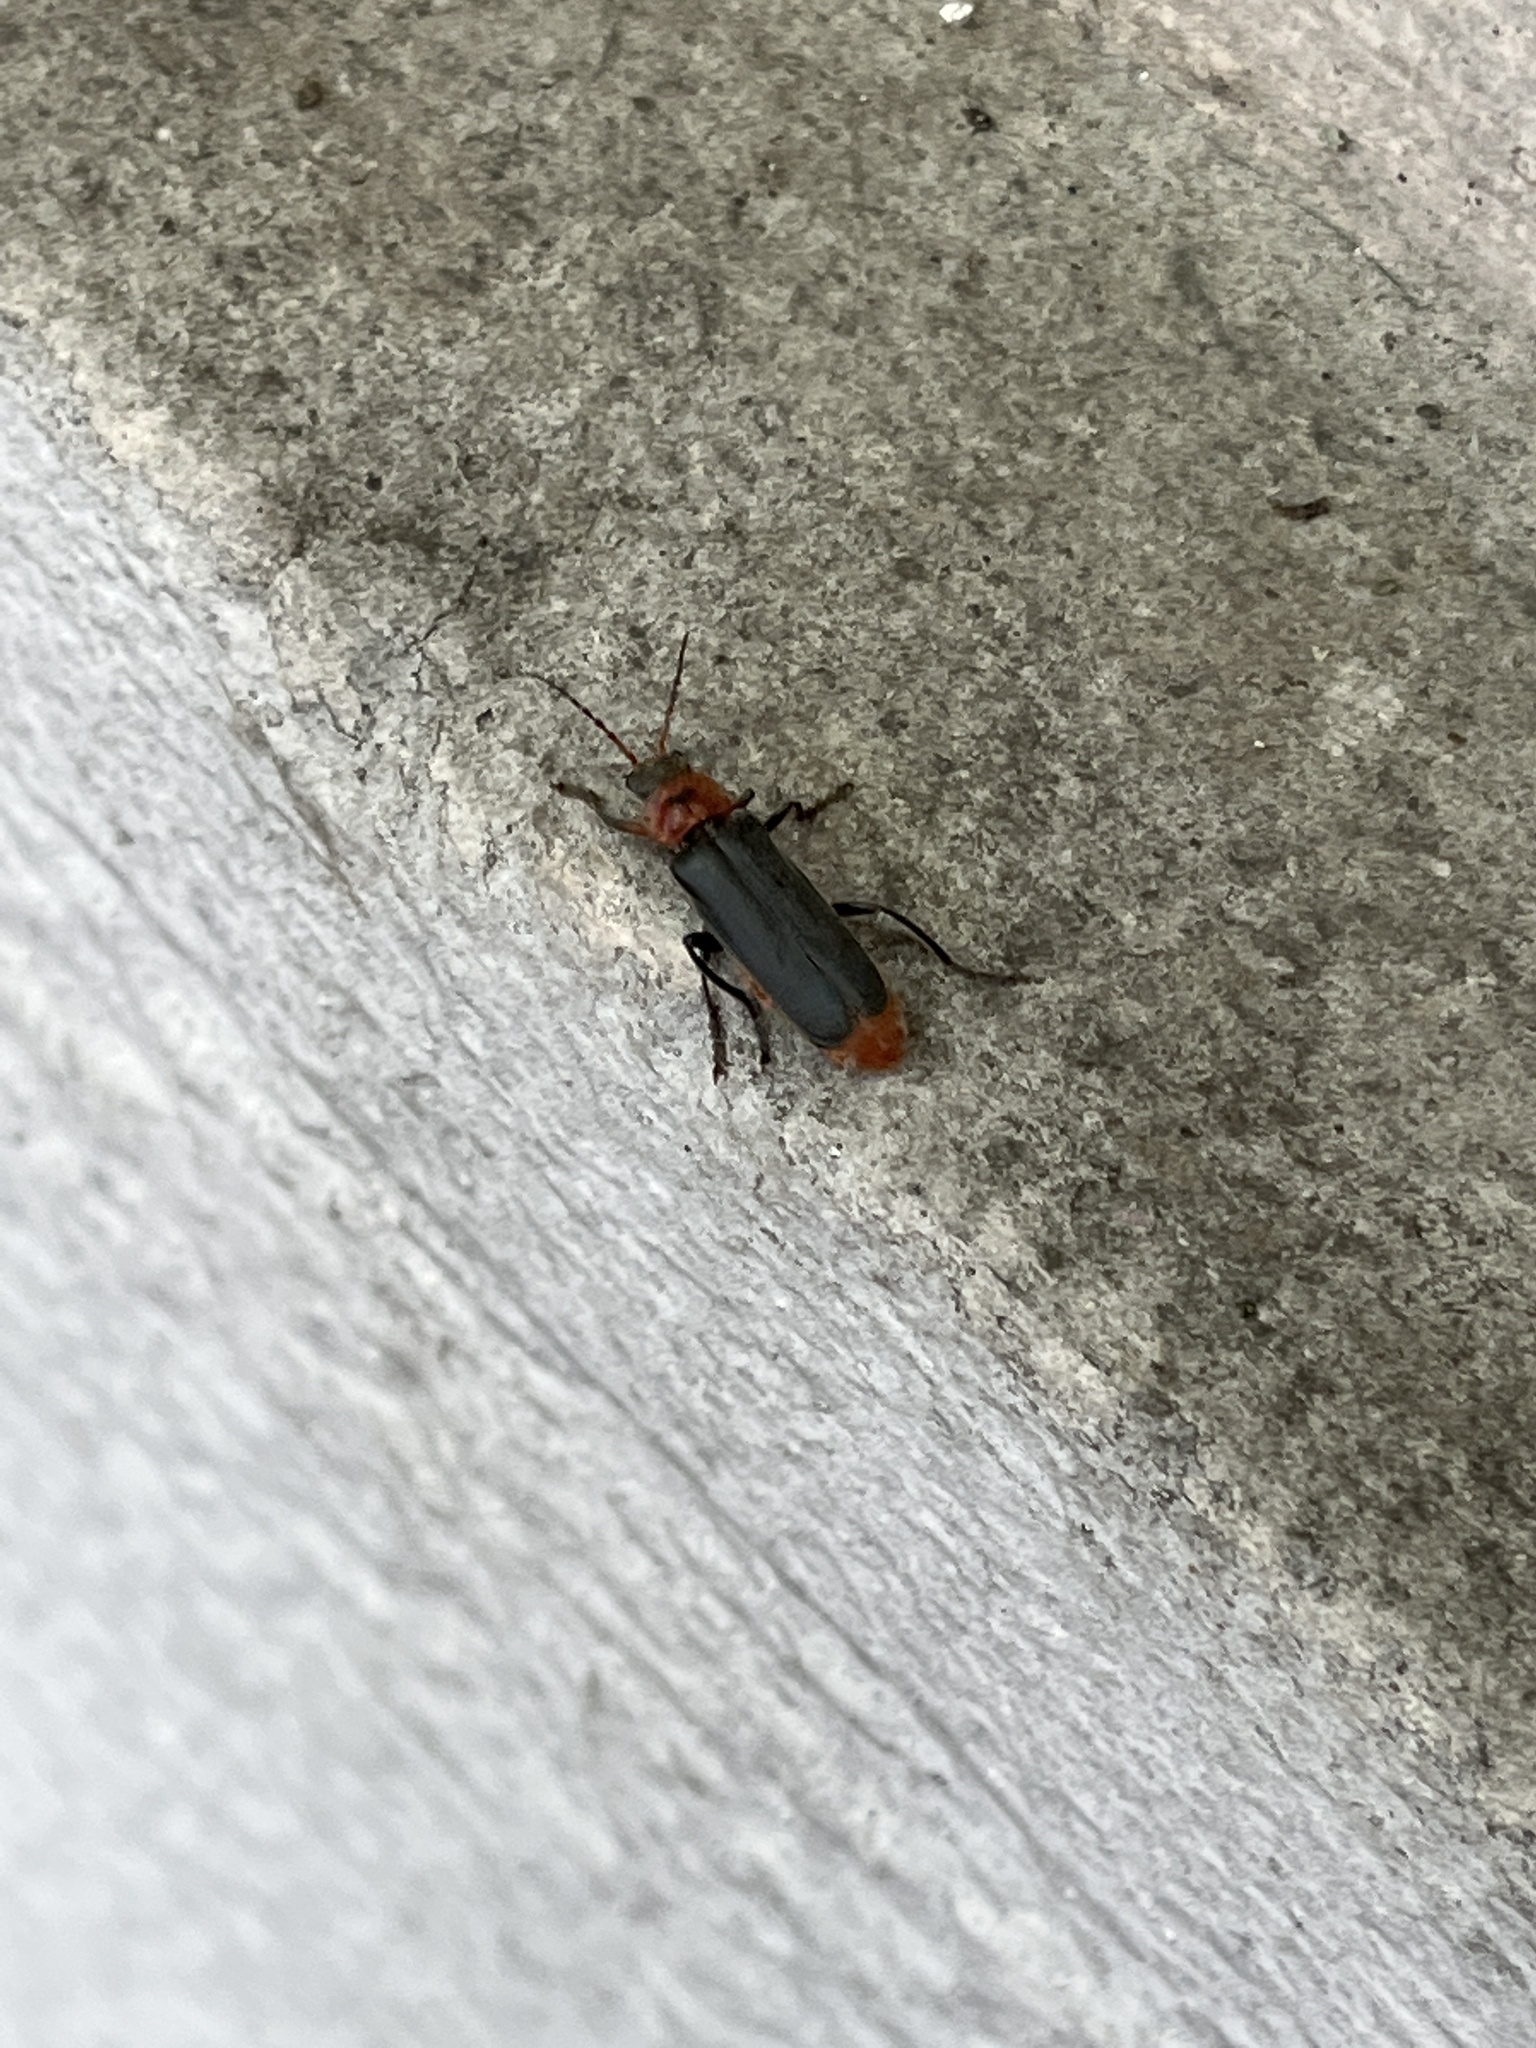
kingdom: Animalia
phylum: Arthropoda
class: Insecta
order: Coleoptera
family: Cantharidae
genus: Cantharis
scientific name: Cantharis rustica
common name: Soldier beetle
